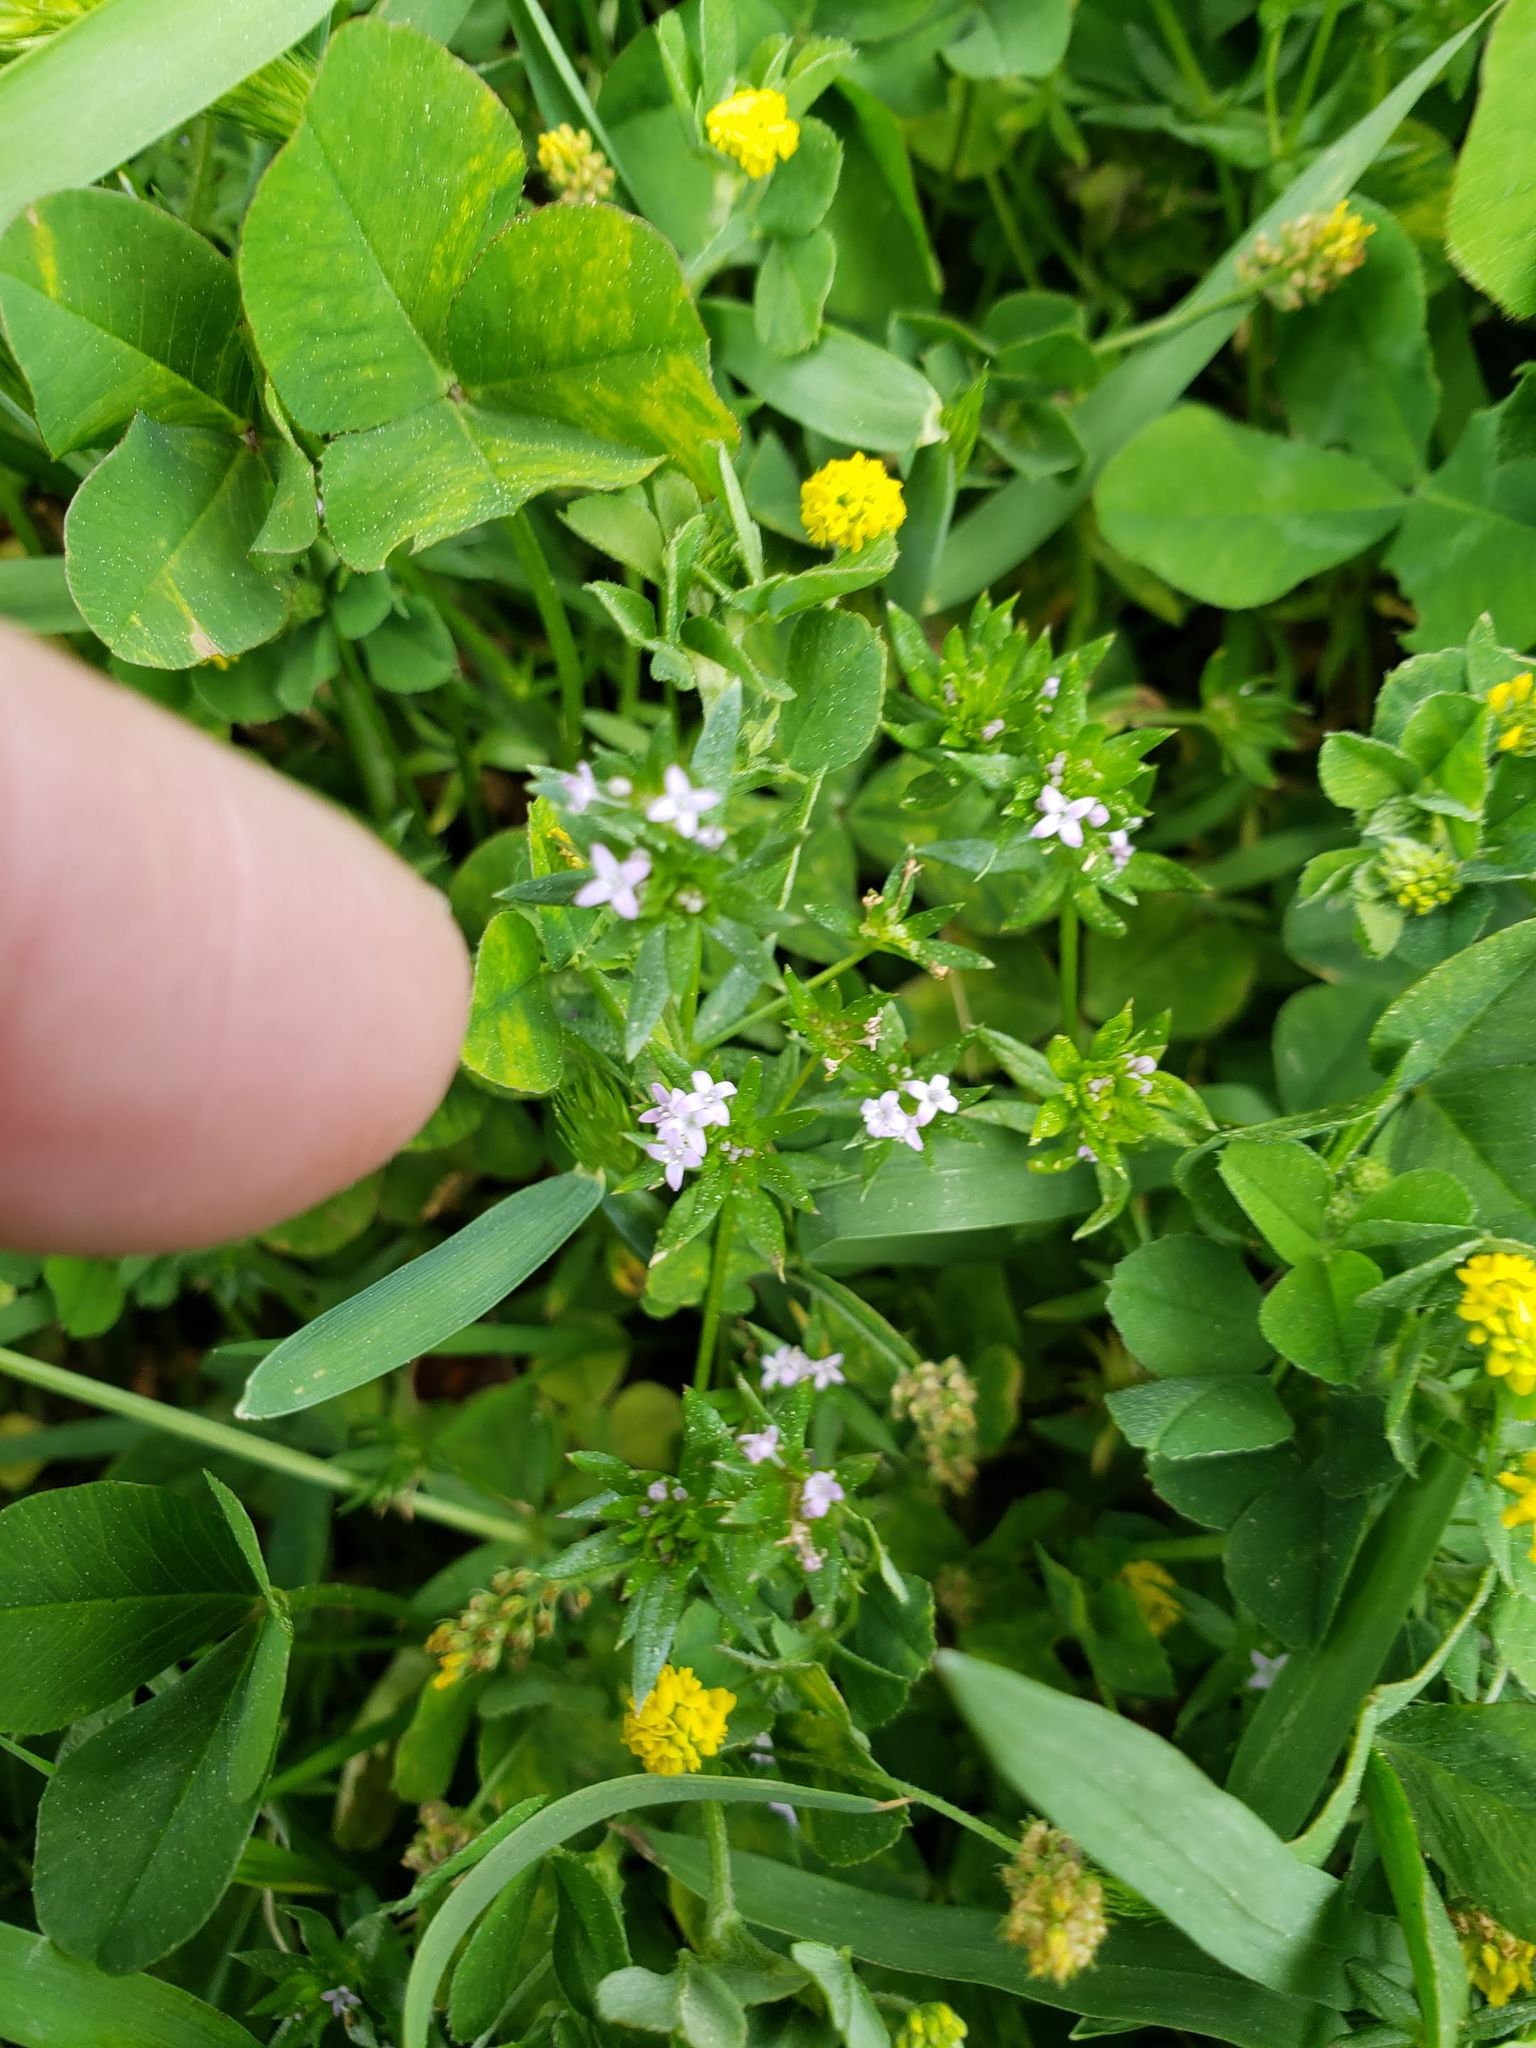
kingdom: Plantae
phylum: Tracheophyta
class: Magnoliopsida
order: Gentianales
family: Rubiaceae
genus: Sherardia
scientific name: Sherardia arvensis
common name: Field madder
